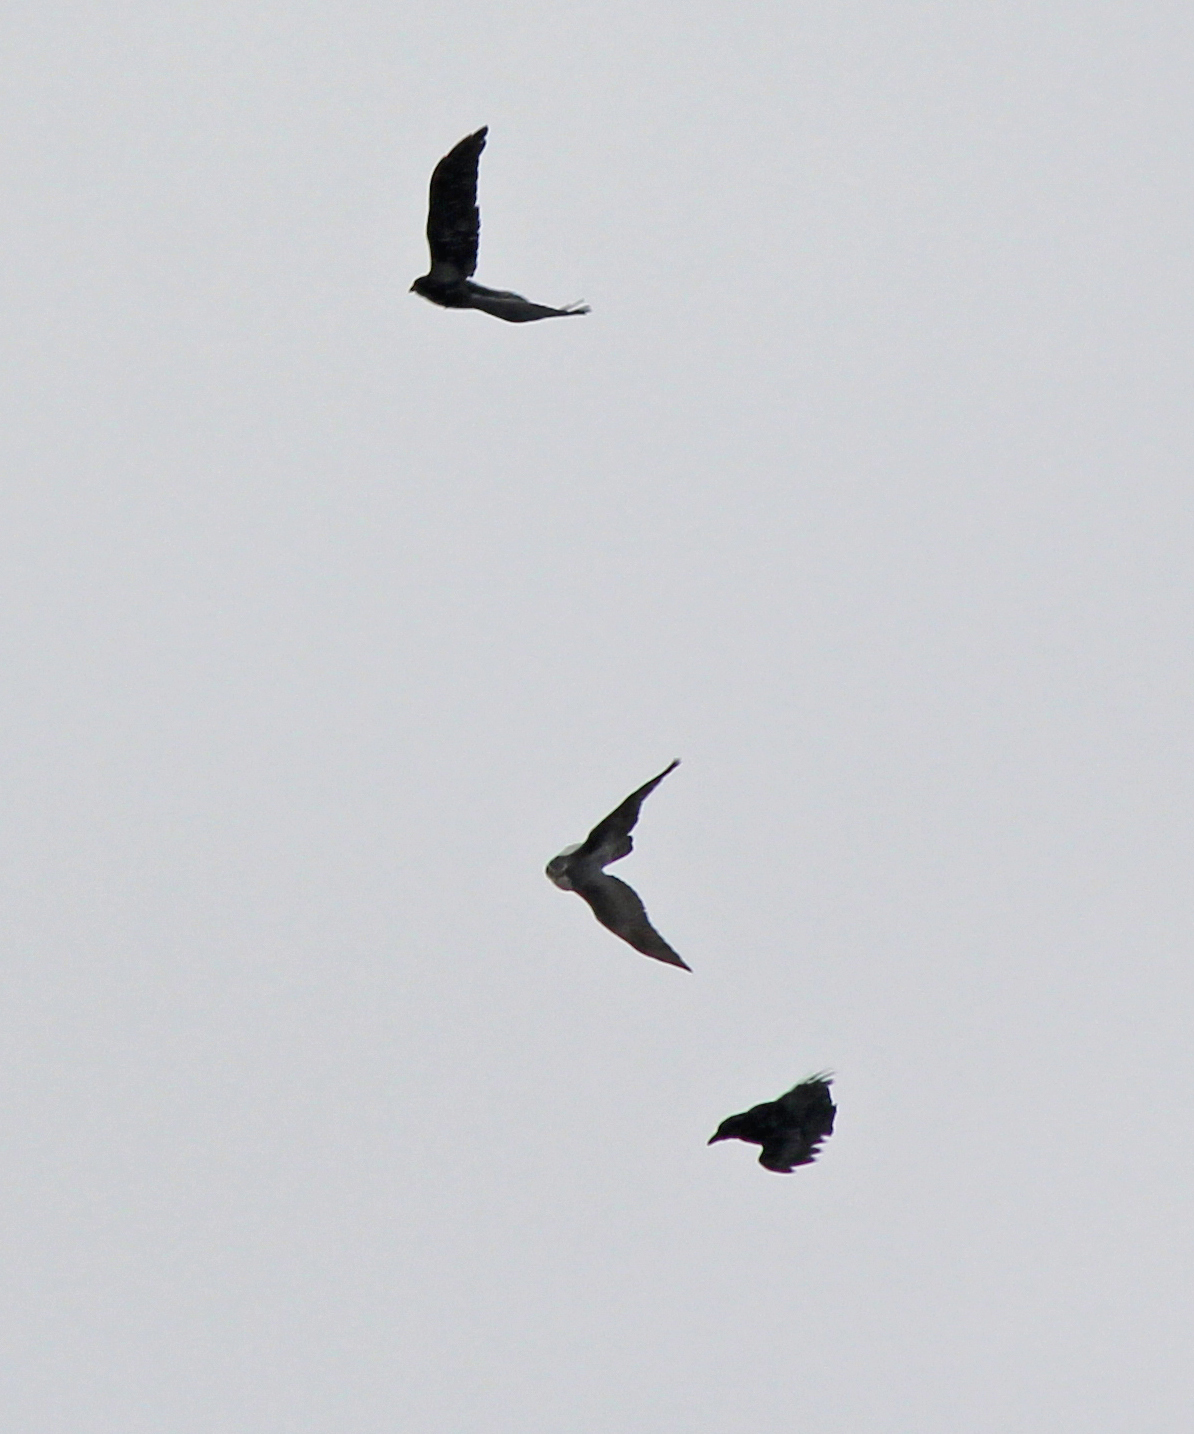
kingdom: Animalia
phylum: Chordata
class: Aves
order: Accipitriformes
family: Accipitridae
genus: Accipiter
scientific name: Accipiter gentilis
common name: Northern goshawk
